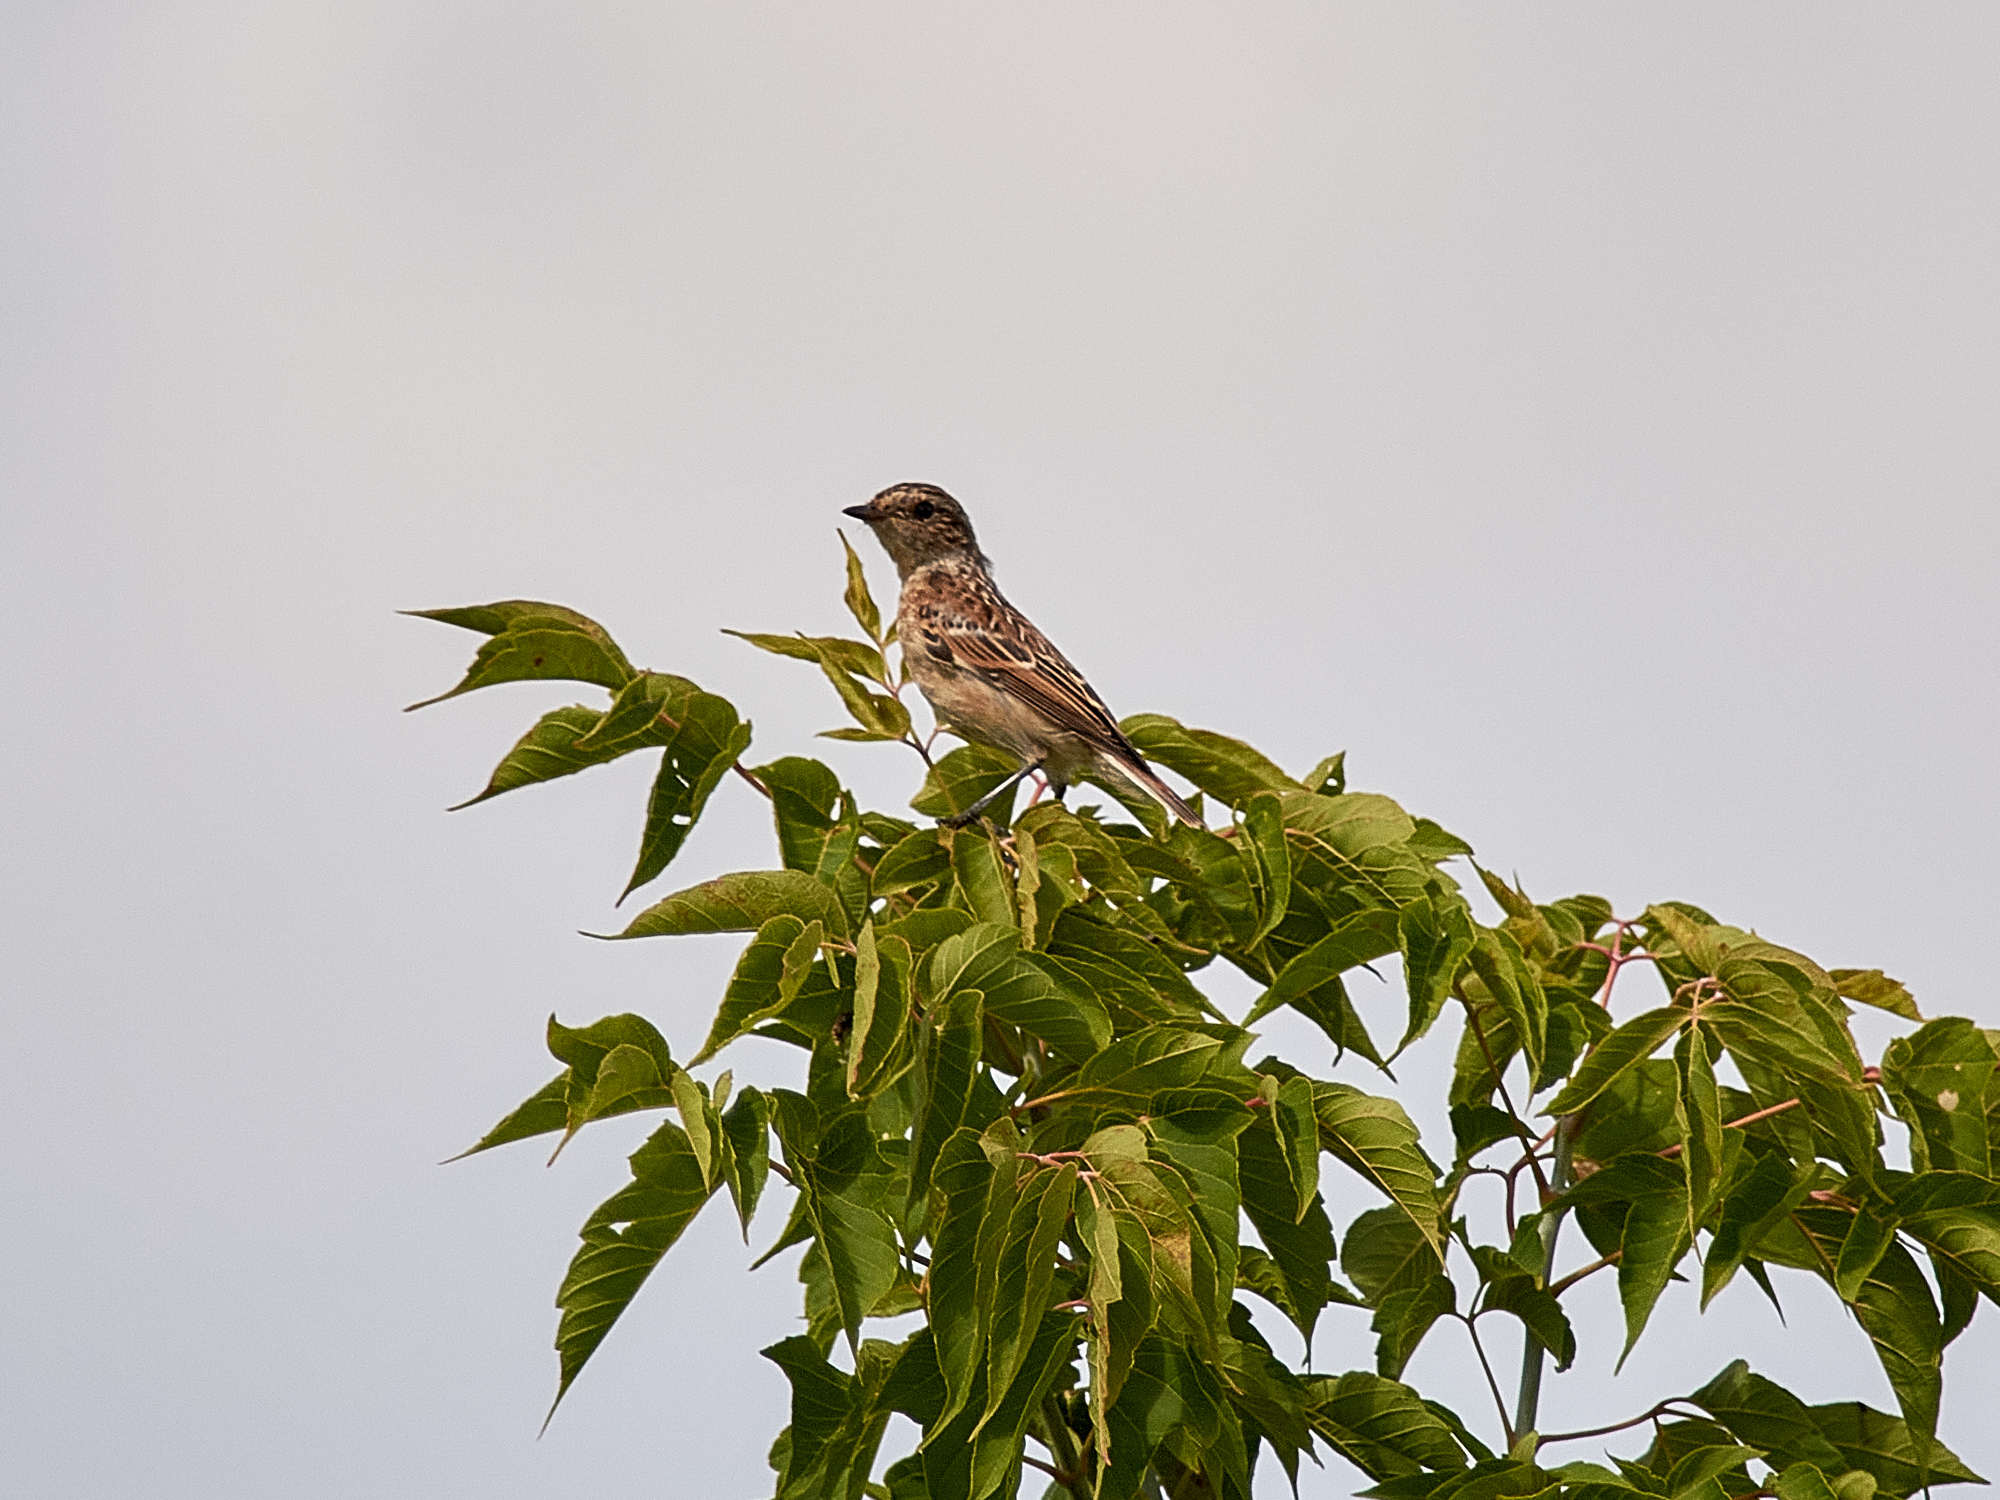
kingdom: Animalia
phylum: Chordata
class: Aves
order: Passeriformes
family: Muscicapidae
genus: Saxicola
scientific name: Saxicola rubetra
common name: Whinchat
